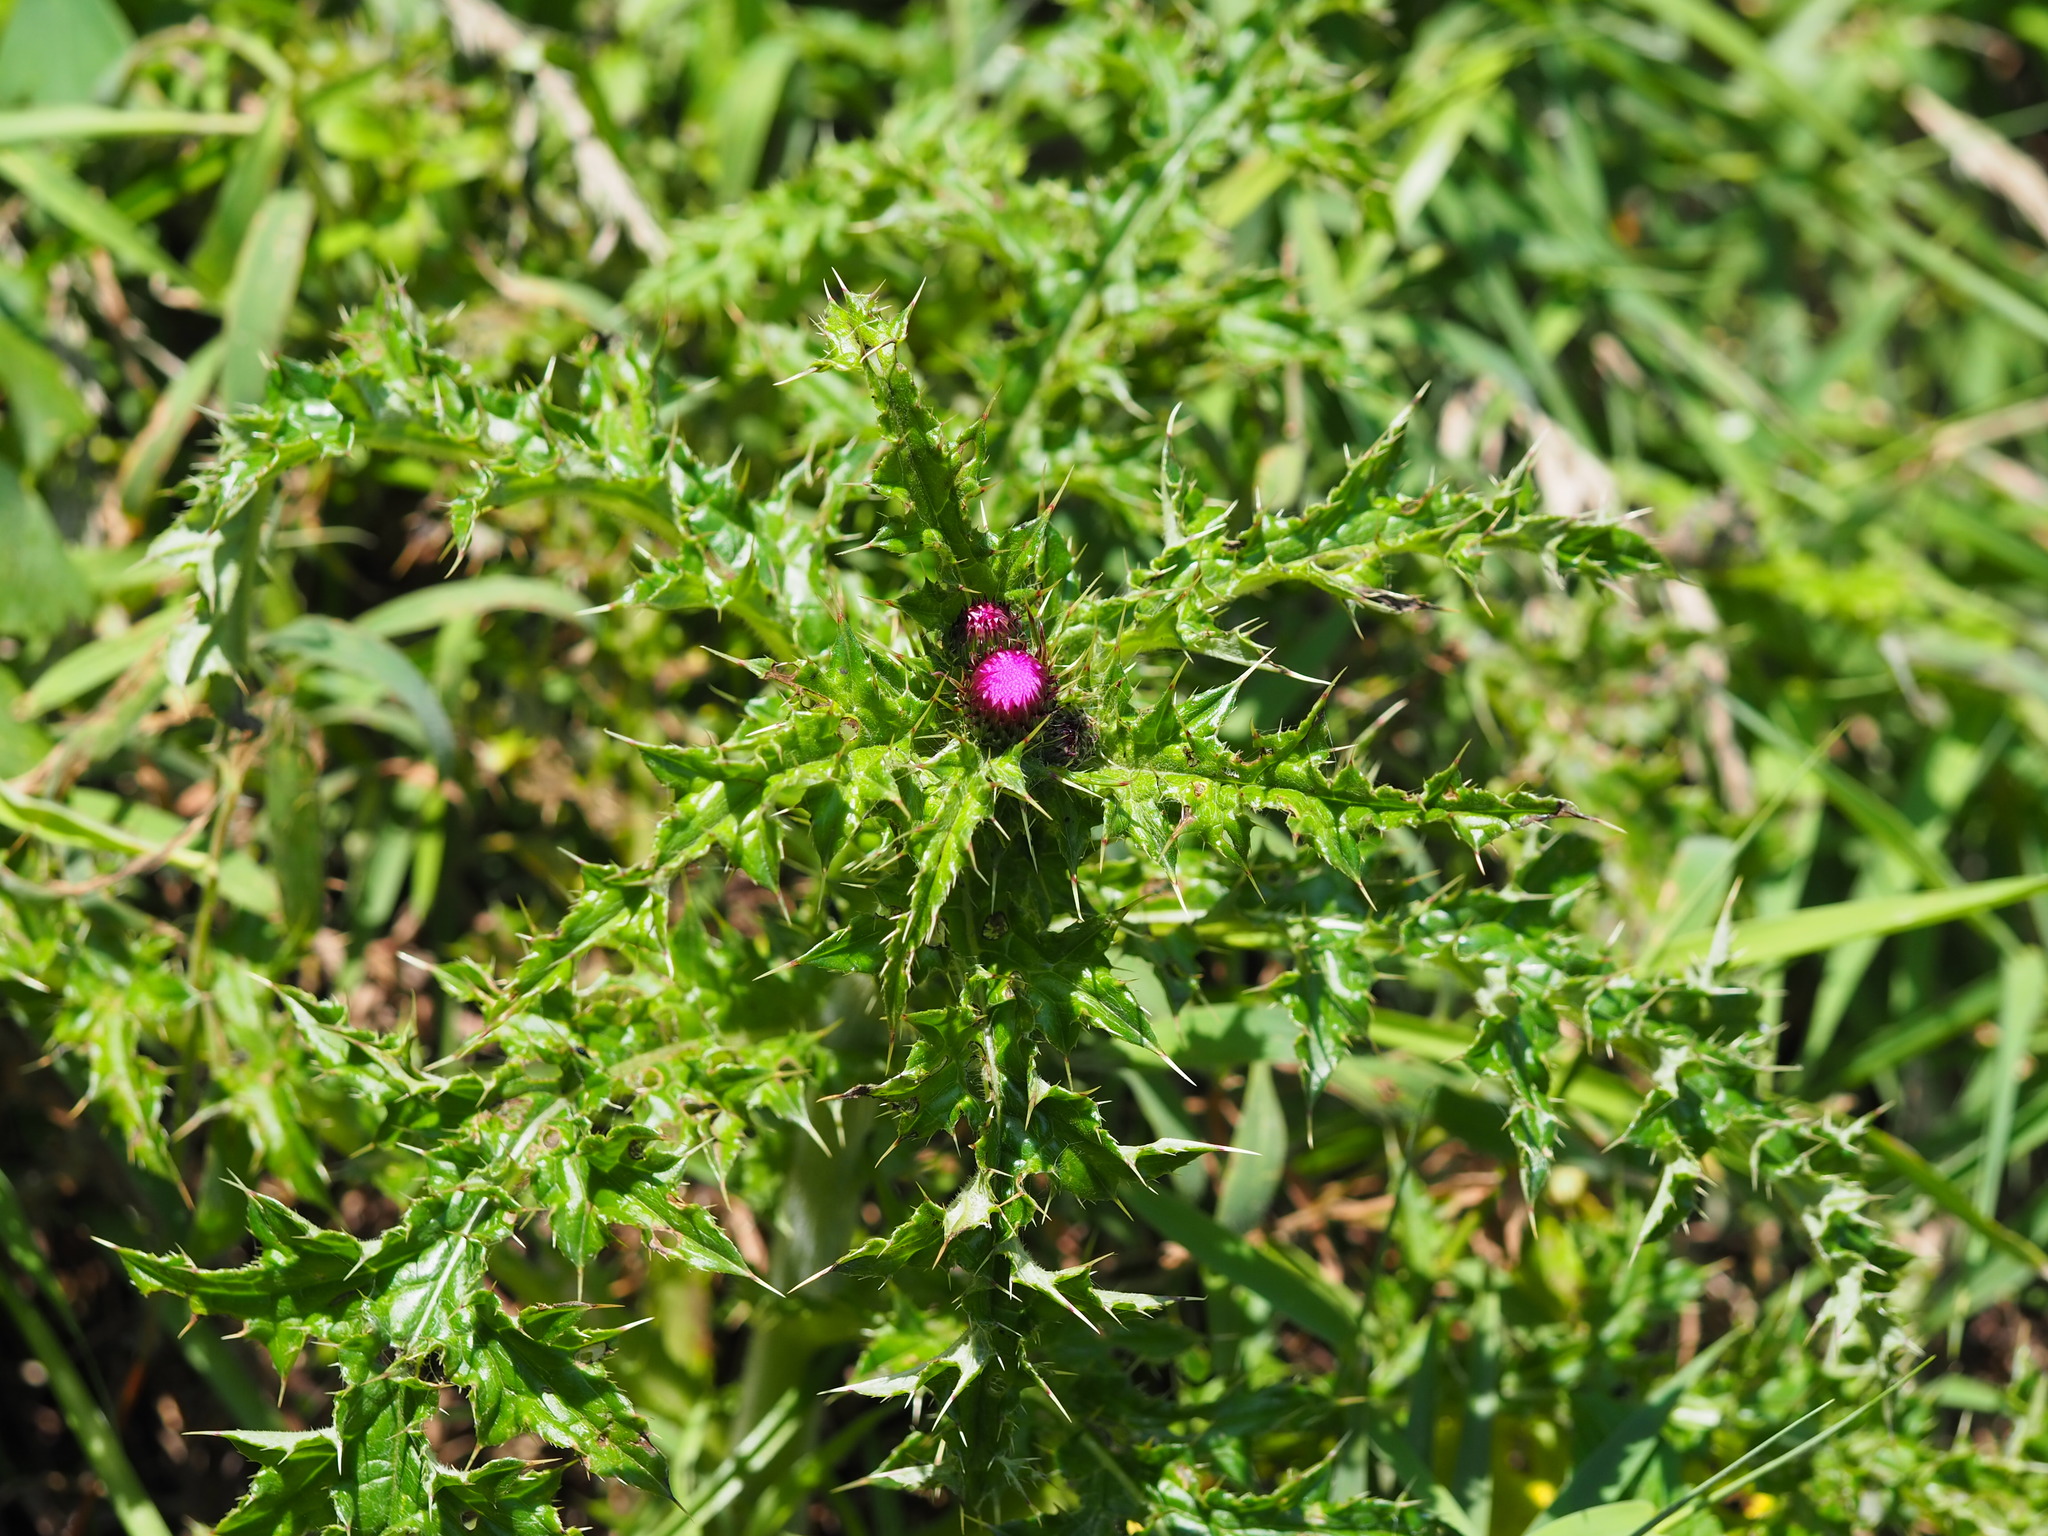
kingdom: Plantae
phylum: Tracheophyta
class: Magnoliopsida
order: Asterales
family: Asteraceae
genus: Cirsium
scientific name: Cirsium japonicum
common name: Japanese thistle
